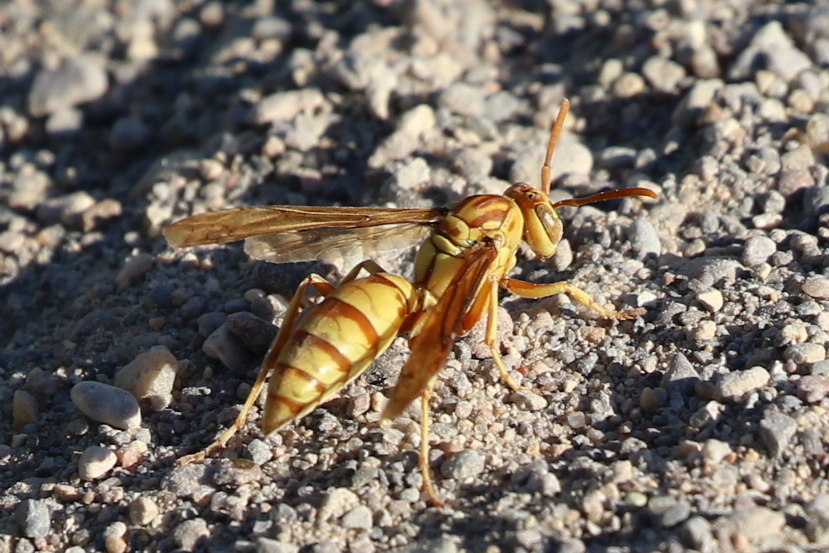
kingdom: Animalia
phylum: Arthropoda
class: Insecta
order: Hymenoptera
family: Eumenidae
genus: Polistes
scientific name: Polistes aurifer
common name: Paper wasp
